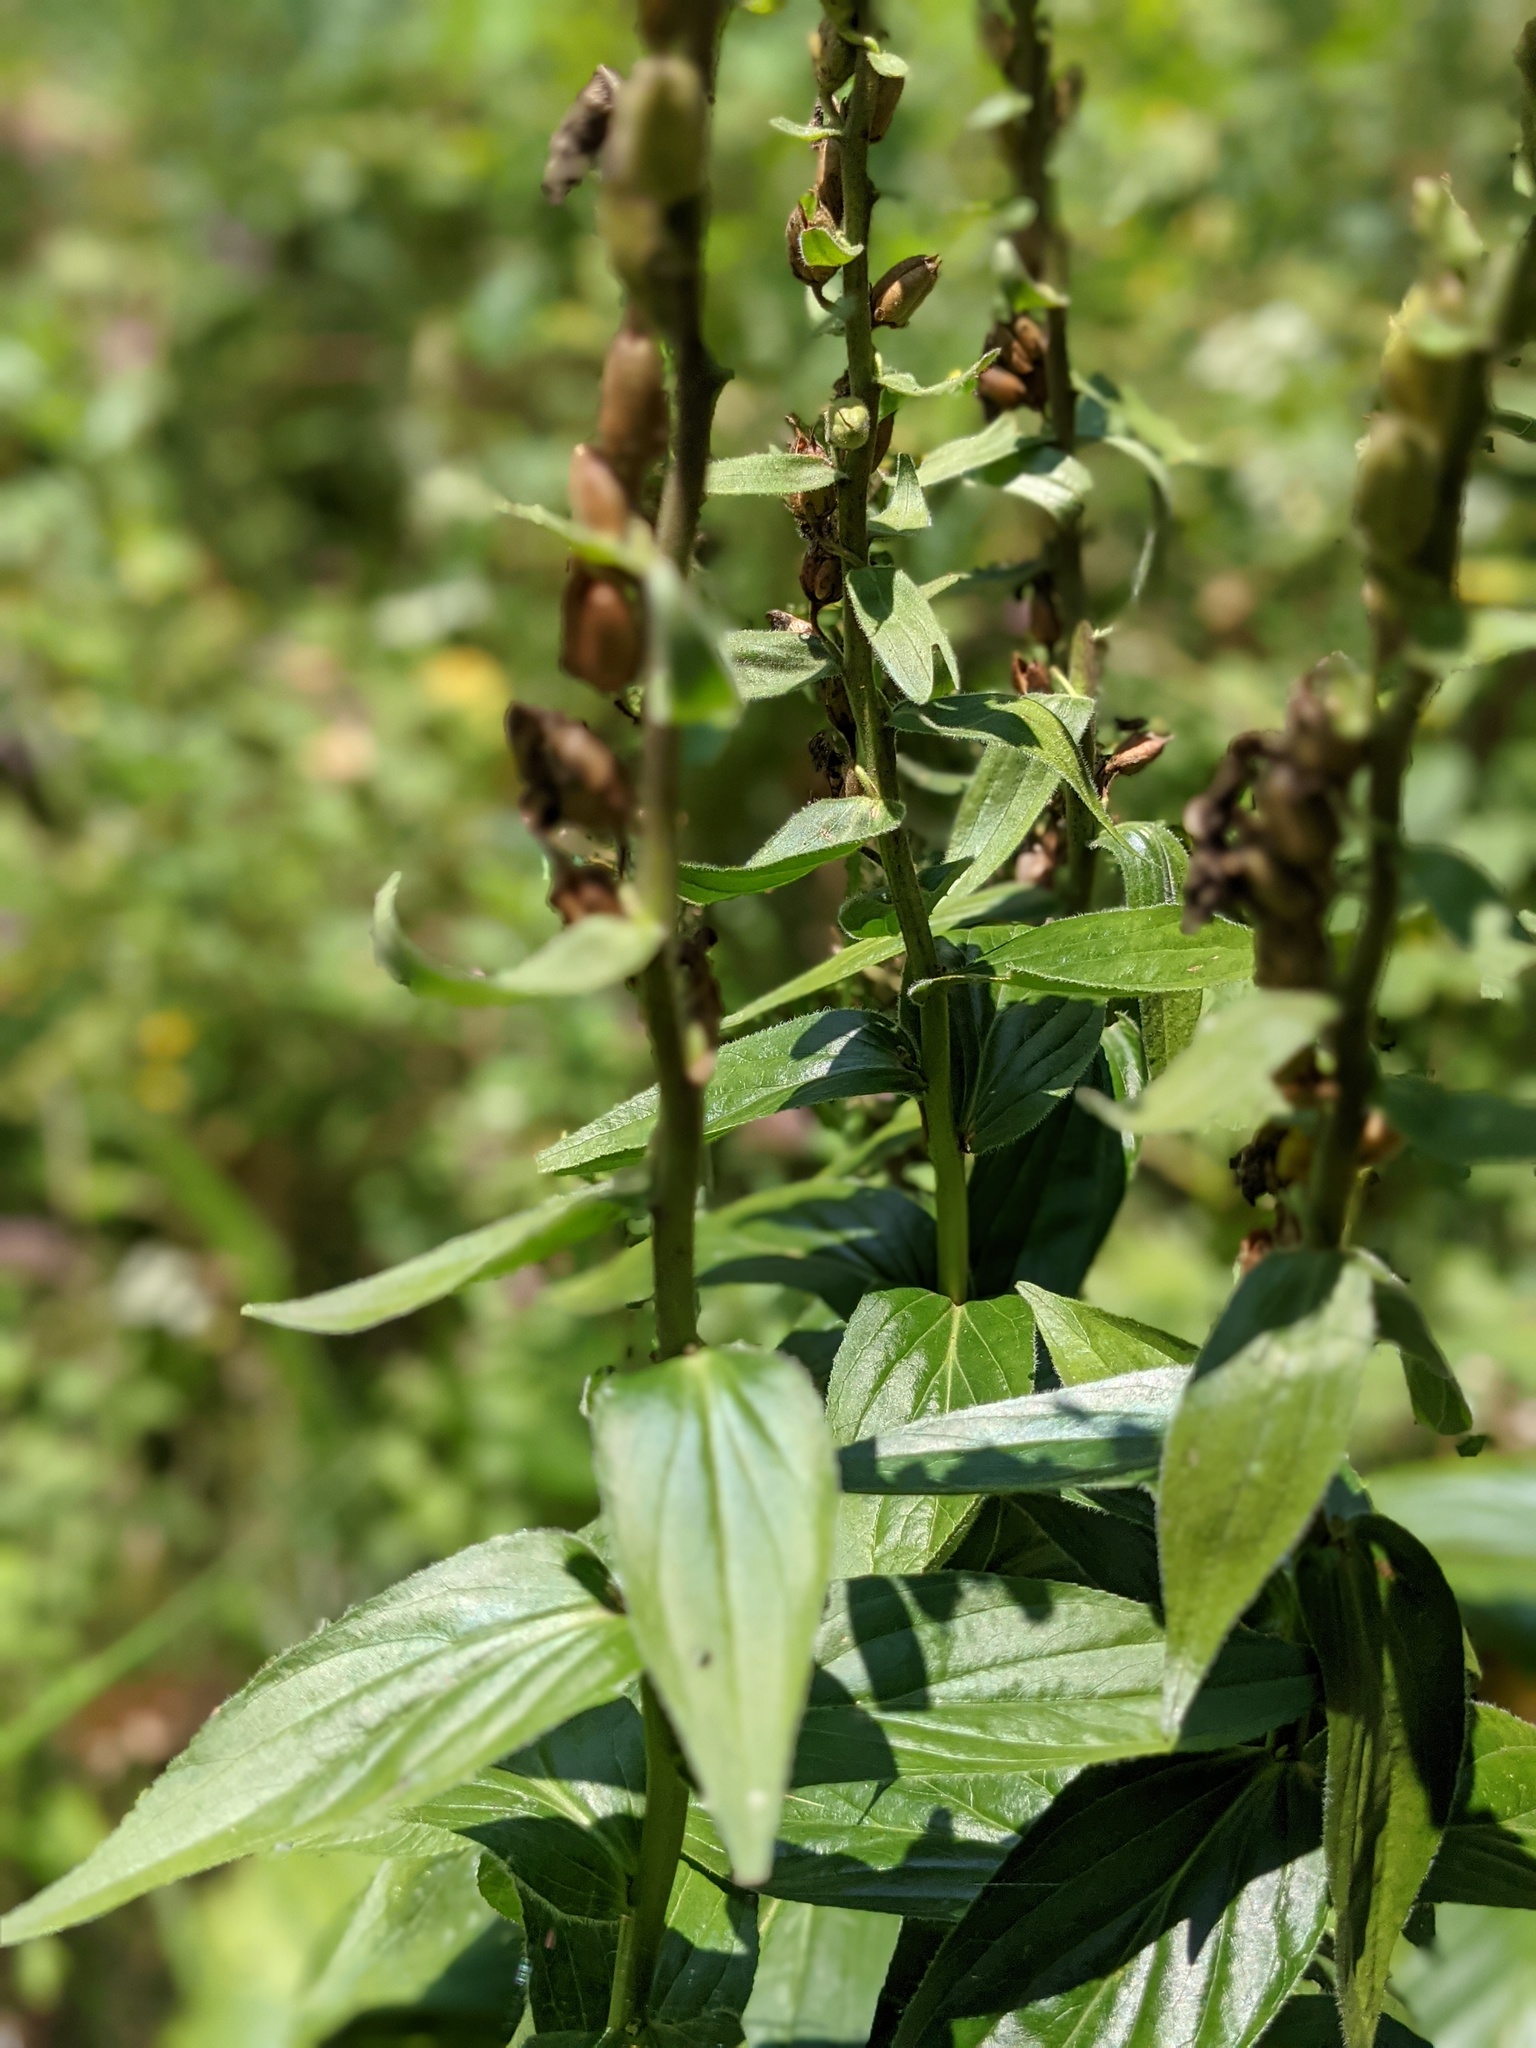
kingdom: Plantae
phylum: Tracheophyta
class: Magnoliopsida
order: Lamiales
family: Plantaginaceae
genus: Digitalis
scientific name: Digitalis grandiflora
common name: Yellow foxglove
